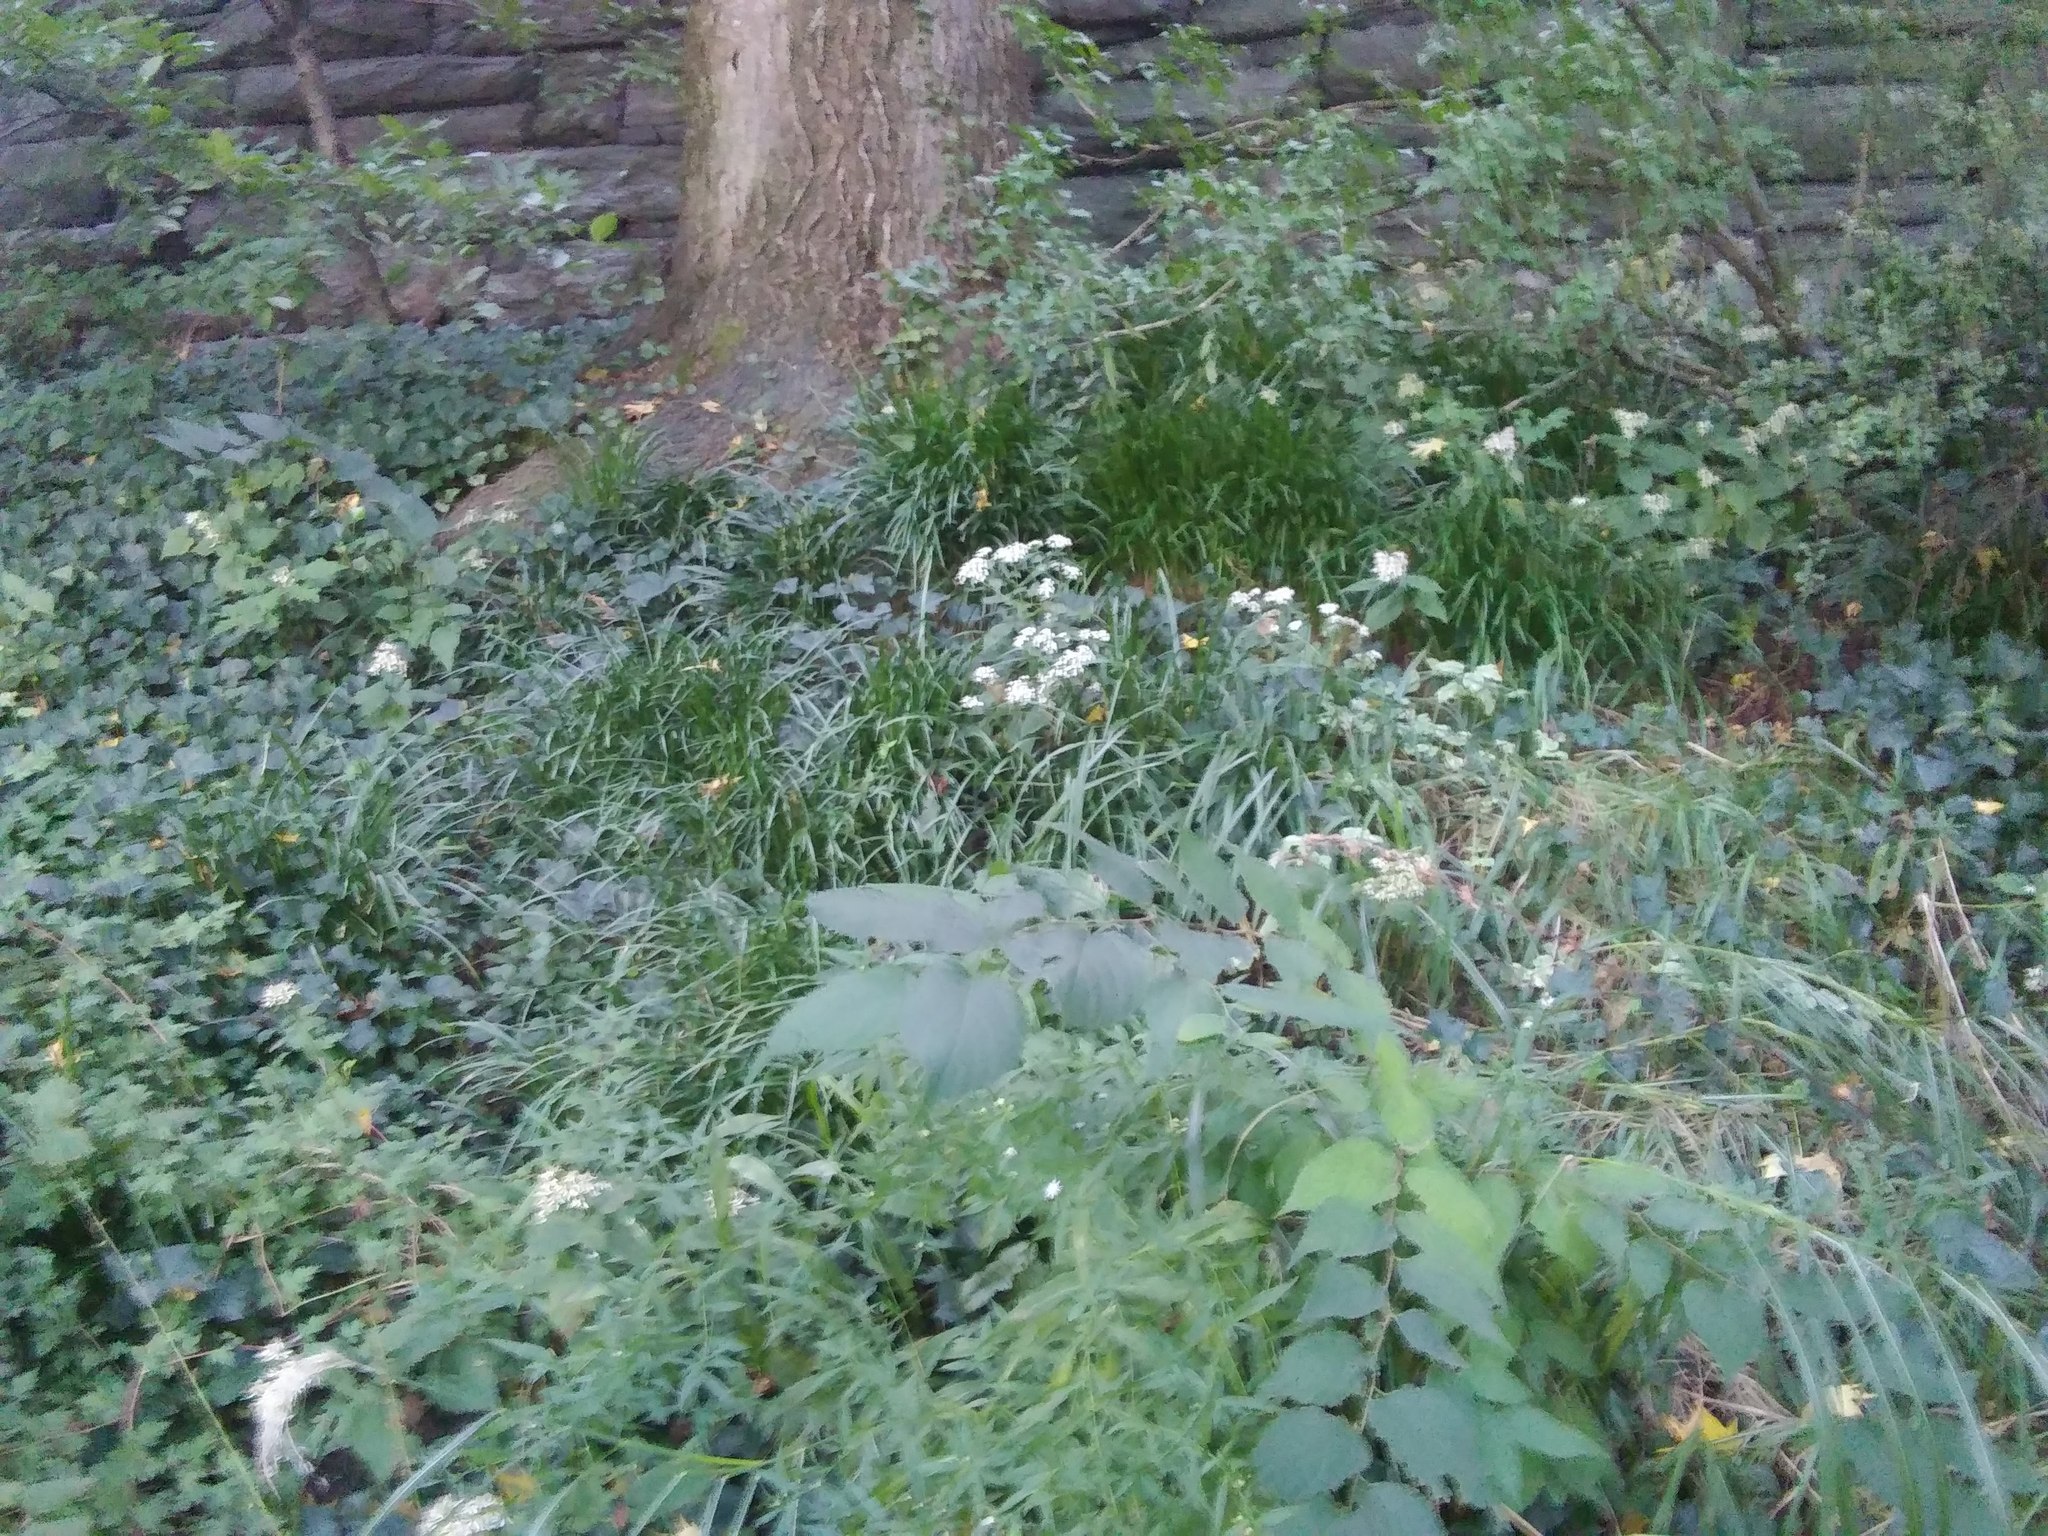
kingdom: Plantae
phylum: Tracheophyta
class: Magnoliopsida
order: Asterales
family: Asteraceae
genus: Ageratina
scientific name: Ageratina altissima
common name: White snakeroot
